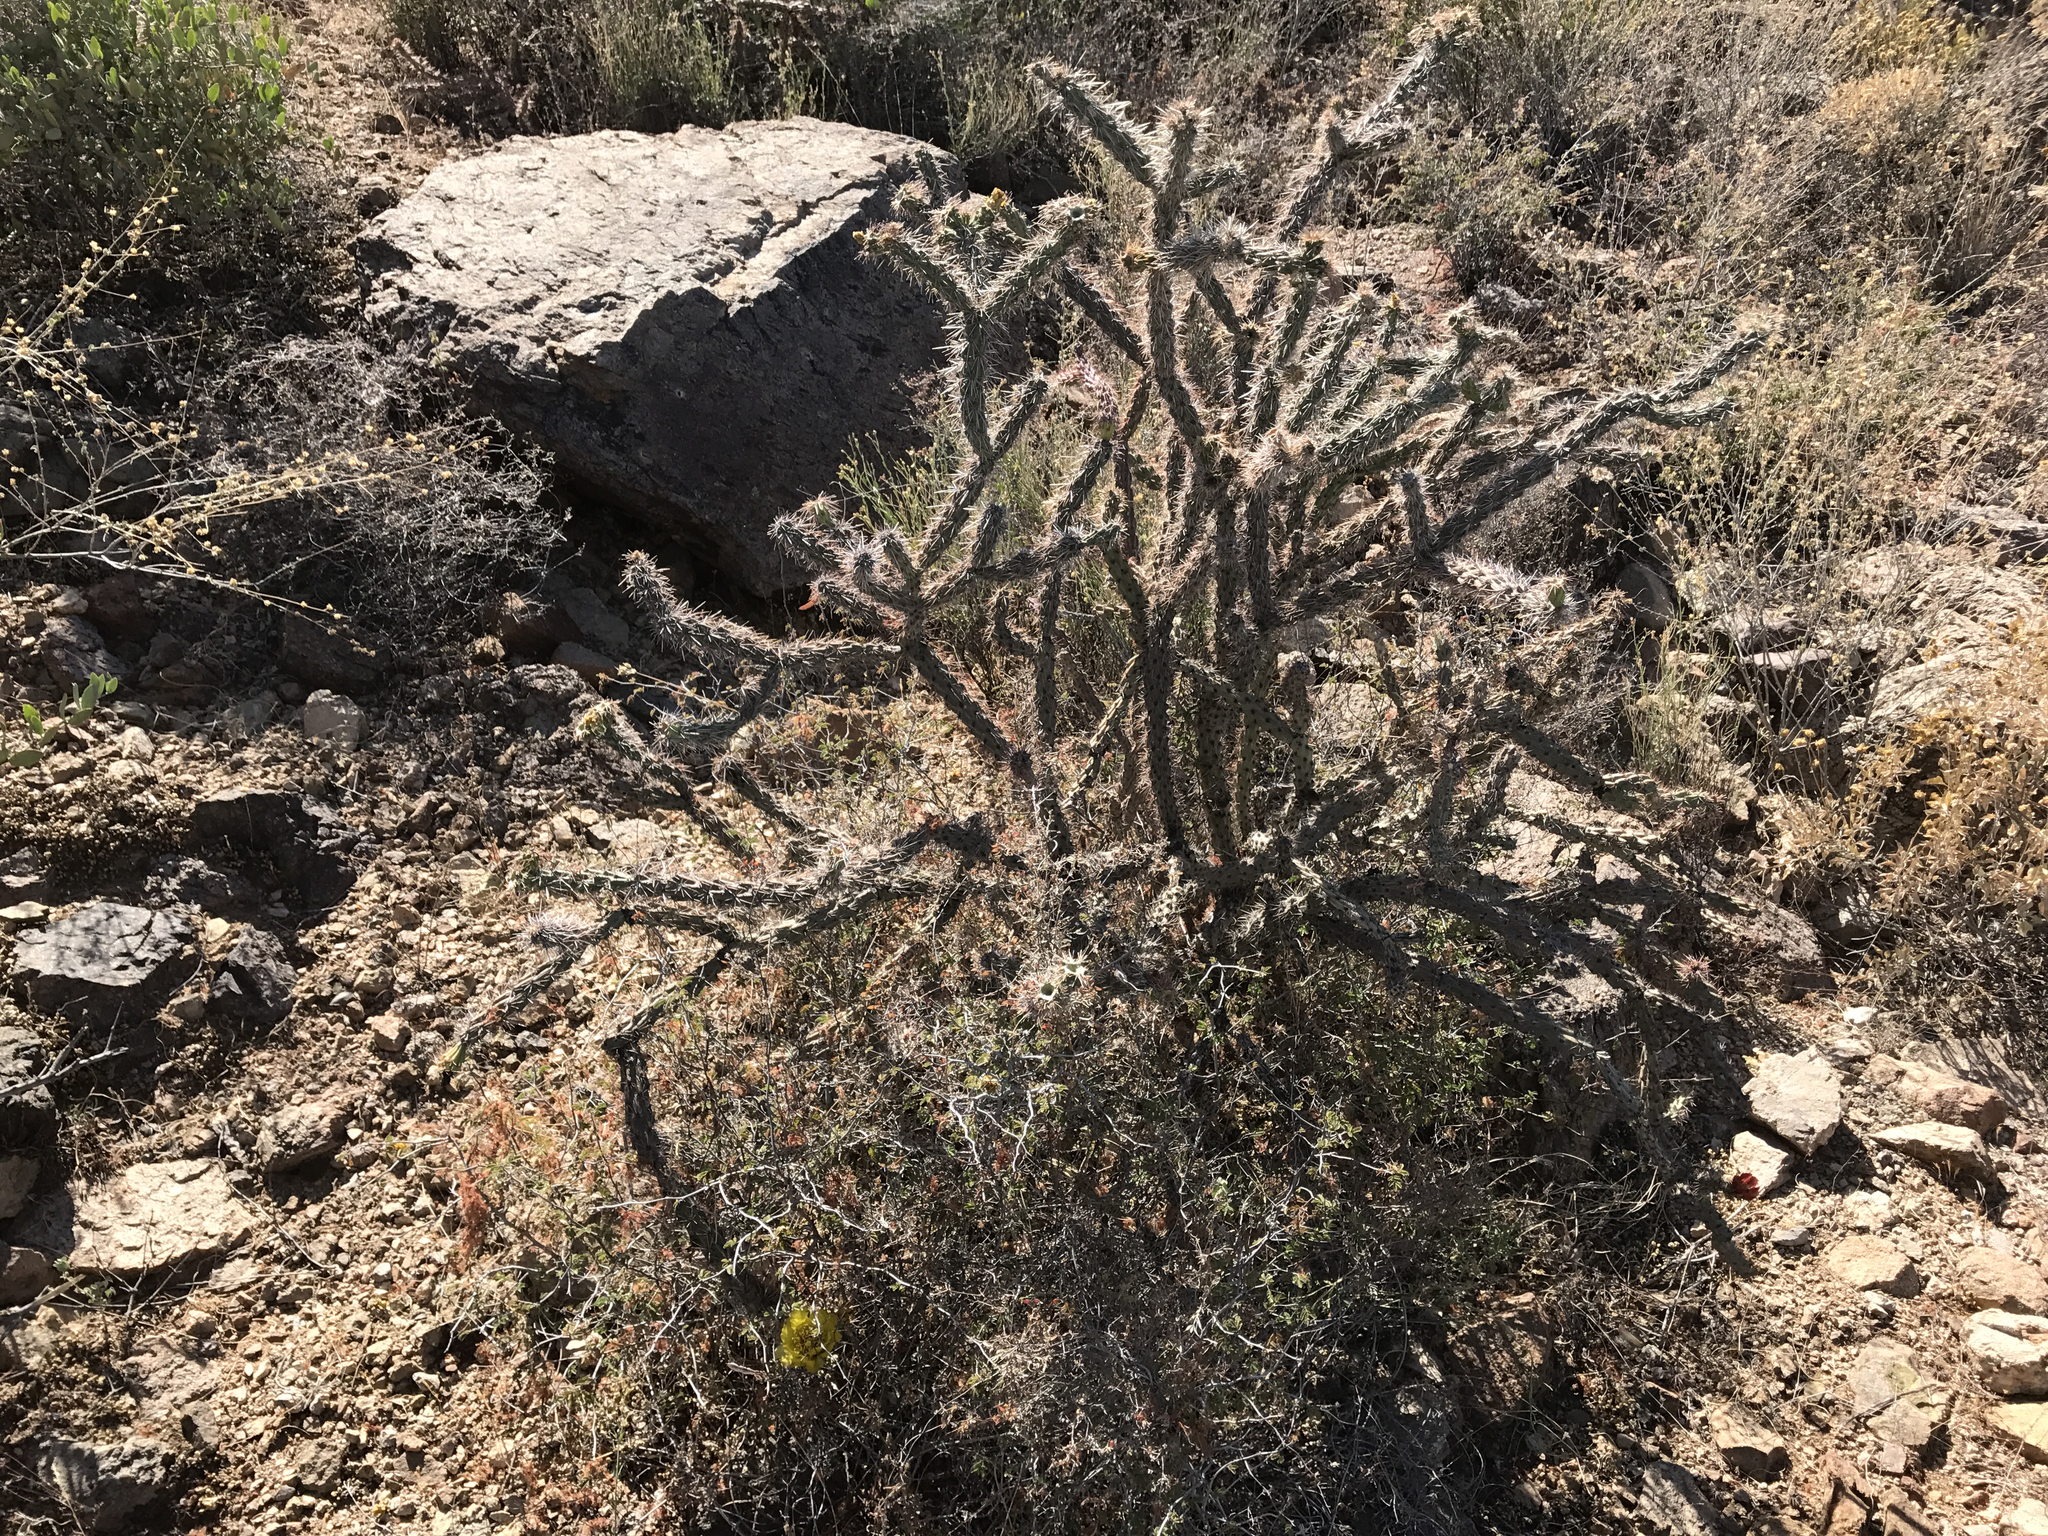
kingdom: Plantae
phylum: Tracheophyta
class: Magnoliopsida
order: Caryophyllales
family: Cactaceae
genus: Cylindropuntia
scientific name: Cylindropuntia acanthocarpa
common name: Buckhorn cholla
